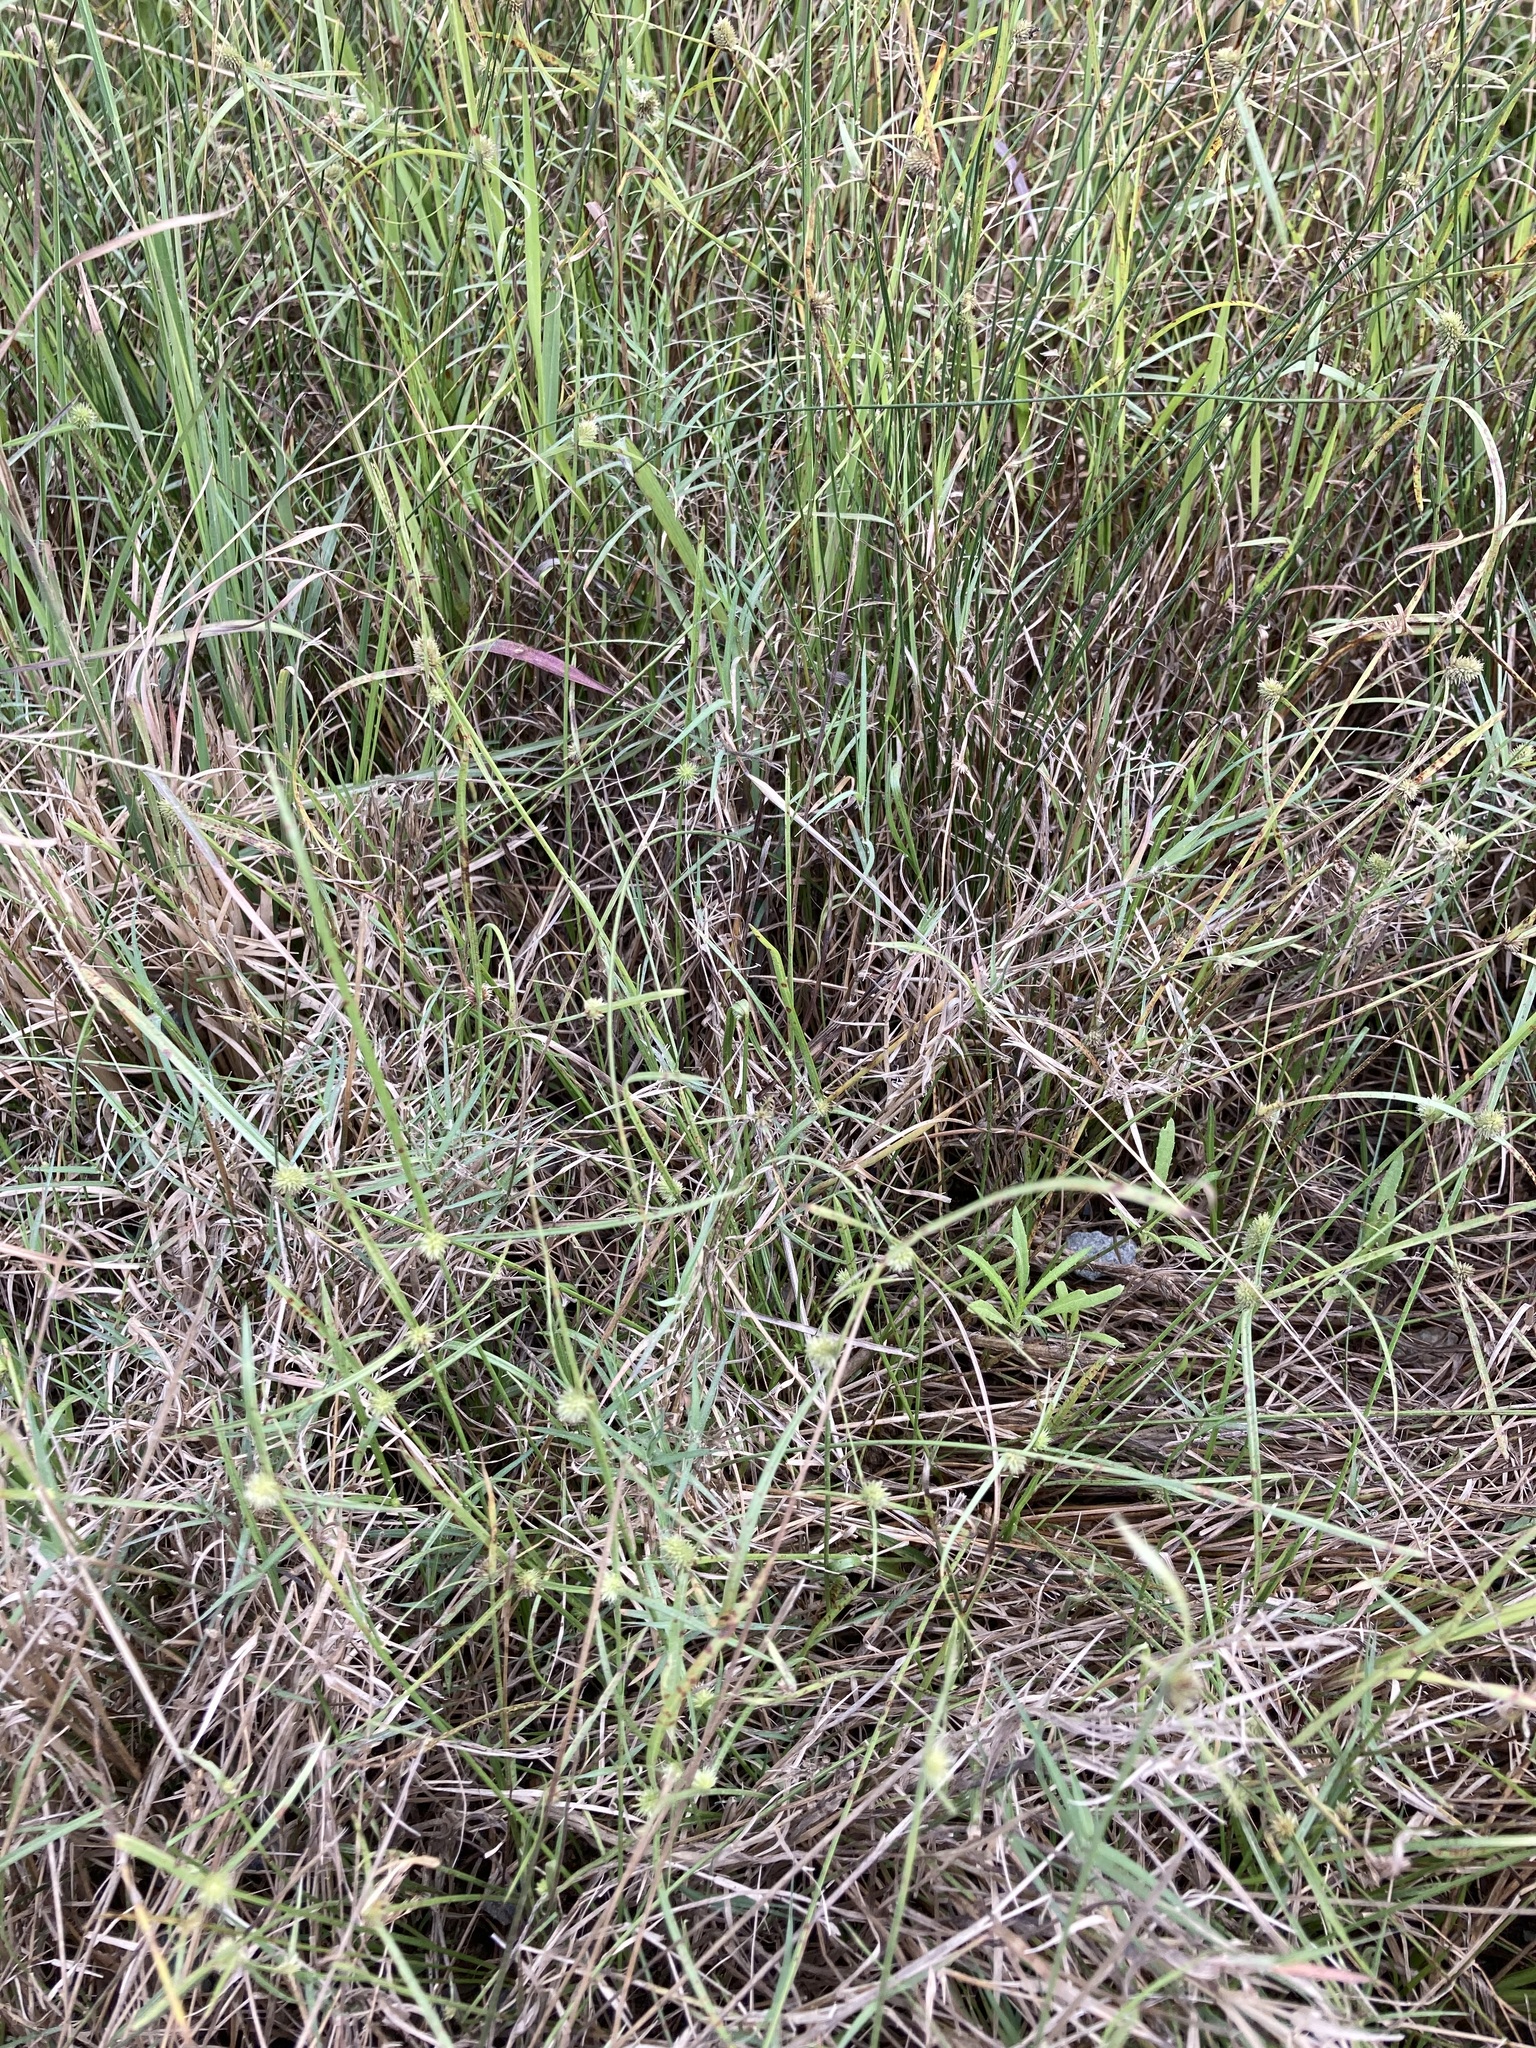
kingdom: Plantae
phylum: Tracheophyta
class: Liliopsida
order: Poales
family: Cyperaceae
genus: Cyperus
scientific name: Cyperus brevifolius
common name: Globe kyllinga
